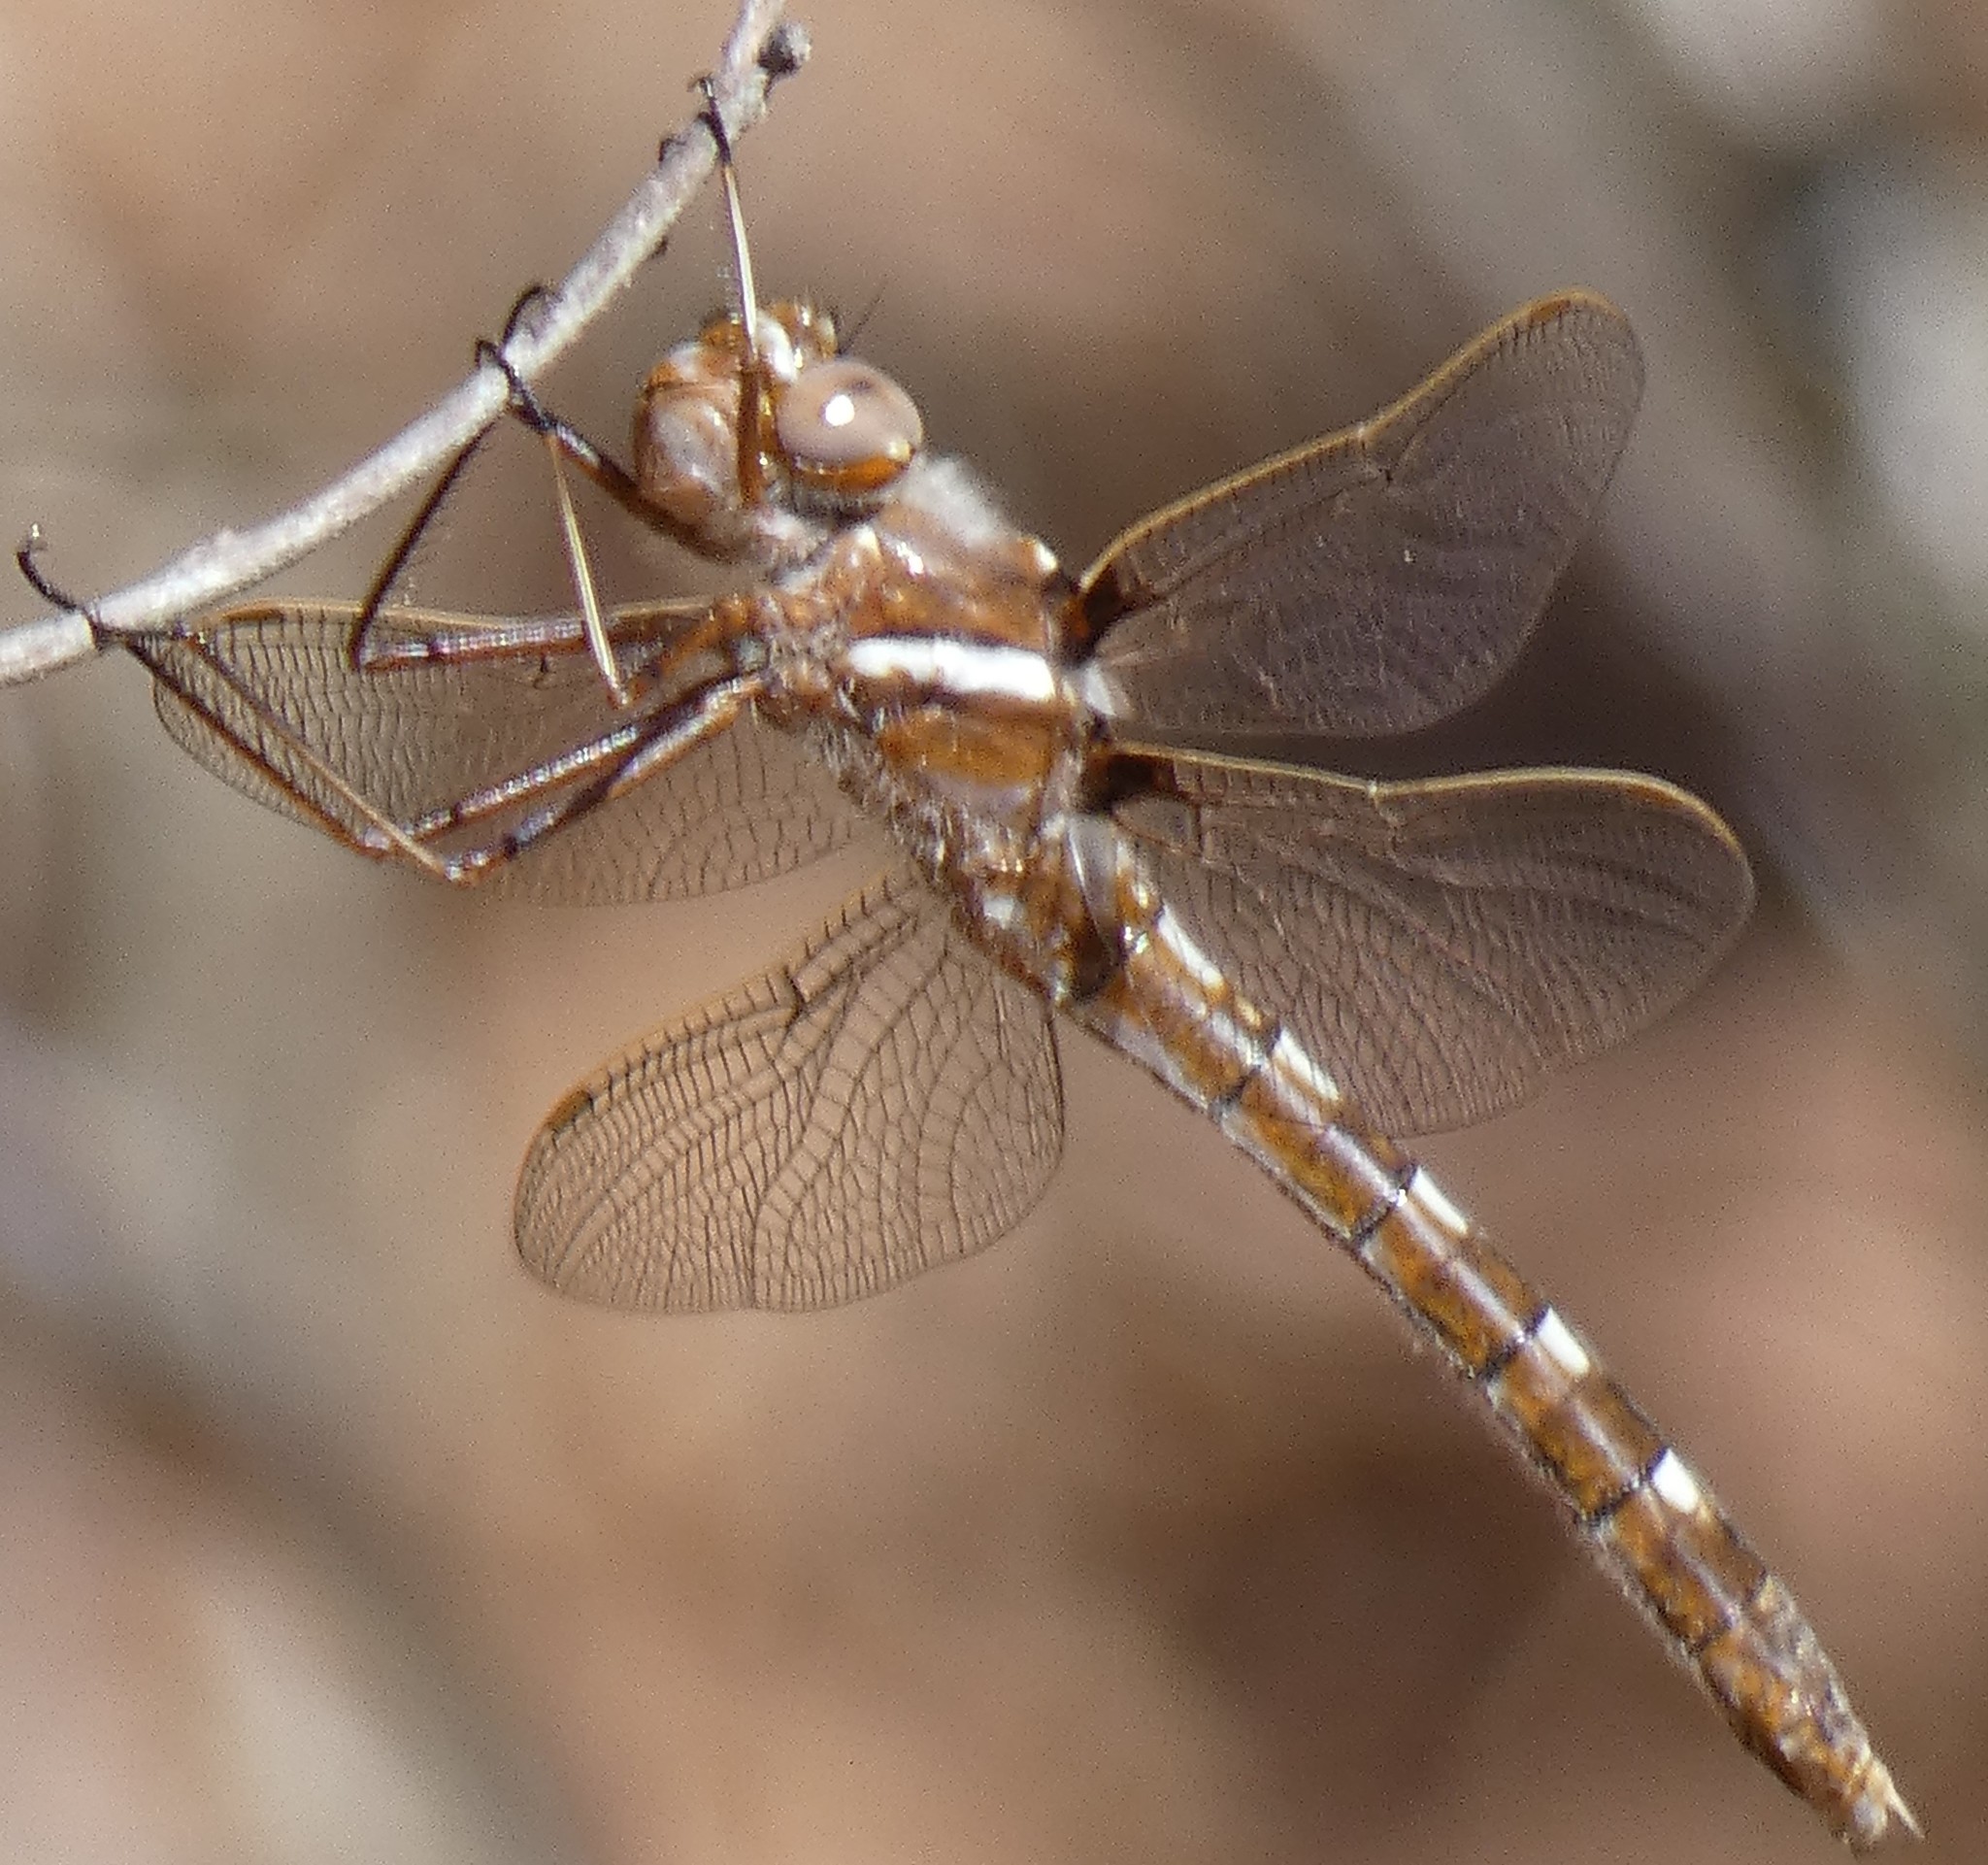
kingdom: Animalia
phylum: Arthropoda
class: Insecta
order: Odonata
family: Macromiidae
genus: Didymops
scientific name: Didymops transversa
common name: Stream cruiser
